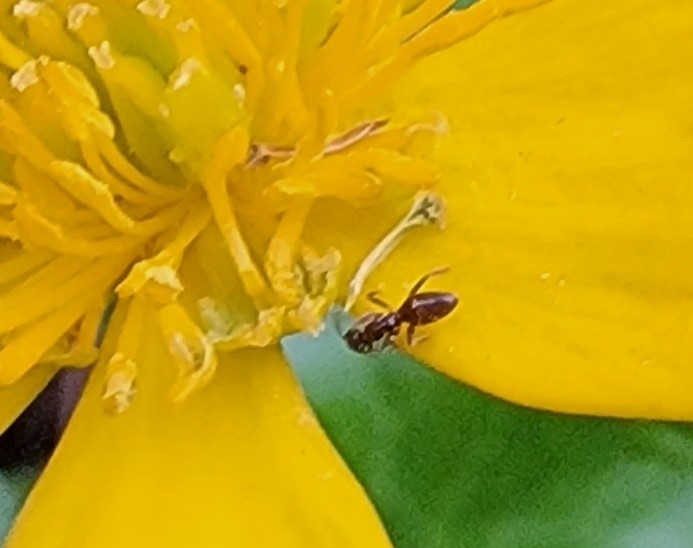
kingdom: Animalia
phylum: Arthropoda
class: Insecta
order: Hymenoptera
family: Formicidae
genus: Tapinoma
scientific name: Tapinoma sessile
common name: Odorous house ant
